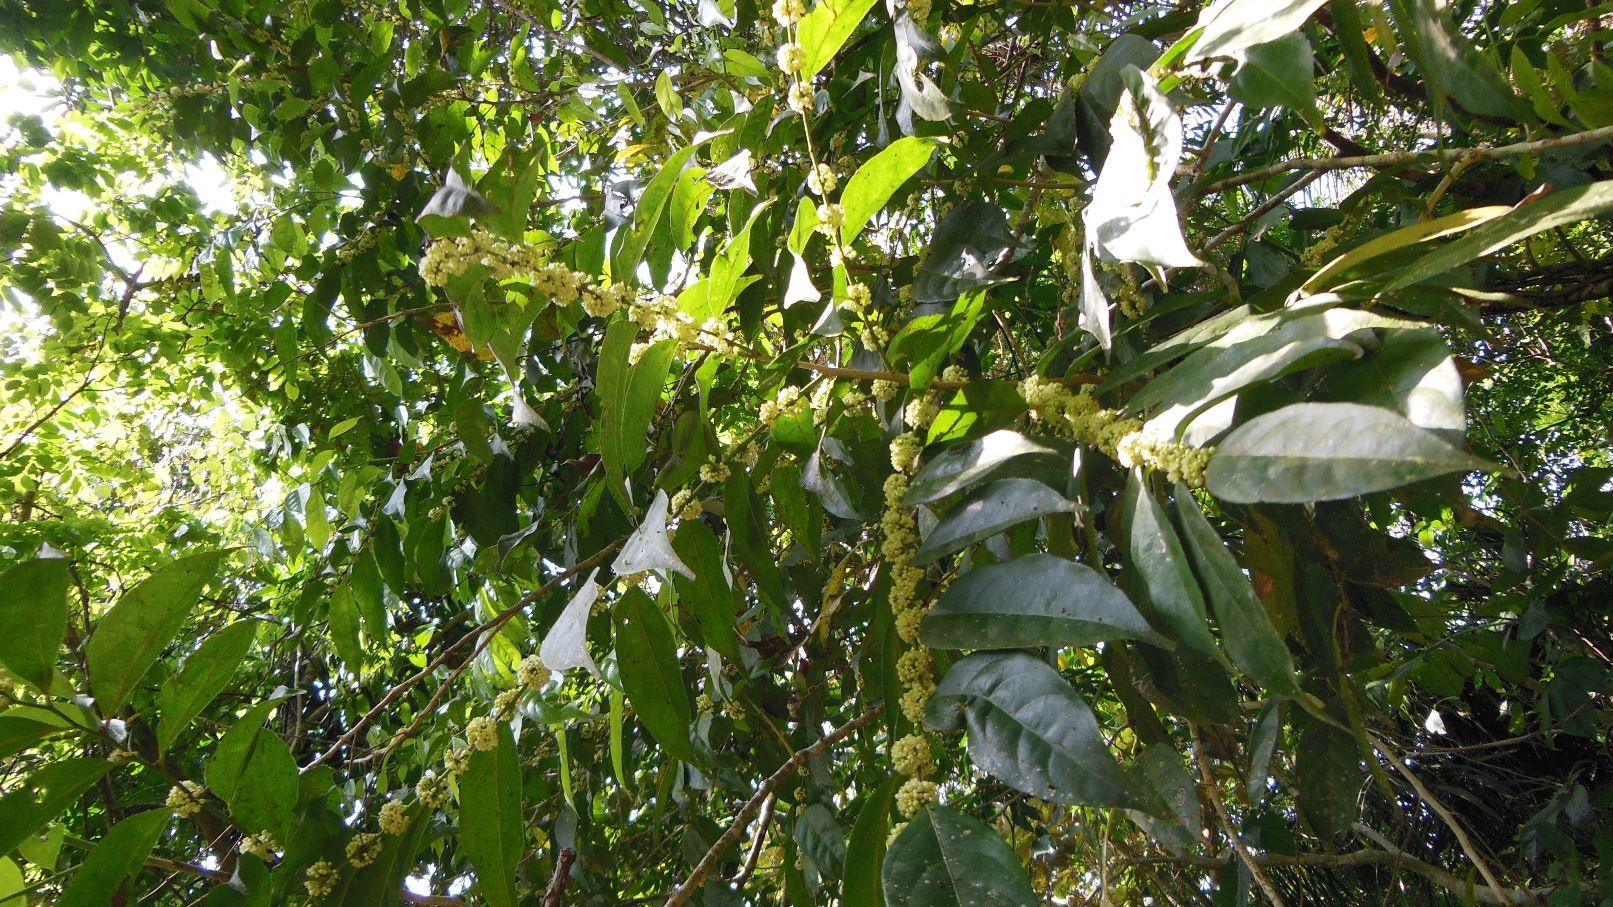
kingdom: Plantae
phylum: Tracheophyta
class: Magnoliopsida
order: Malpighiales
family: Salicaceae
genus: Piparea
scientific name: Piparea dentata
